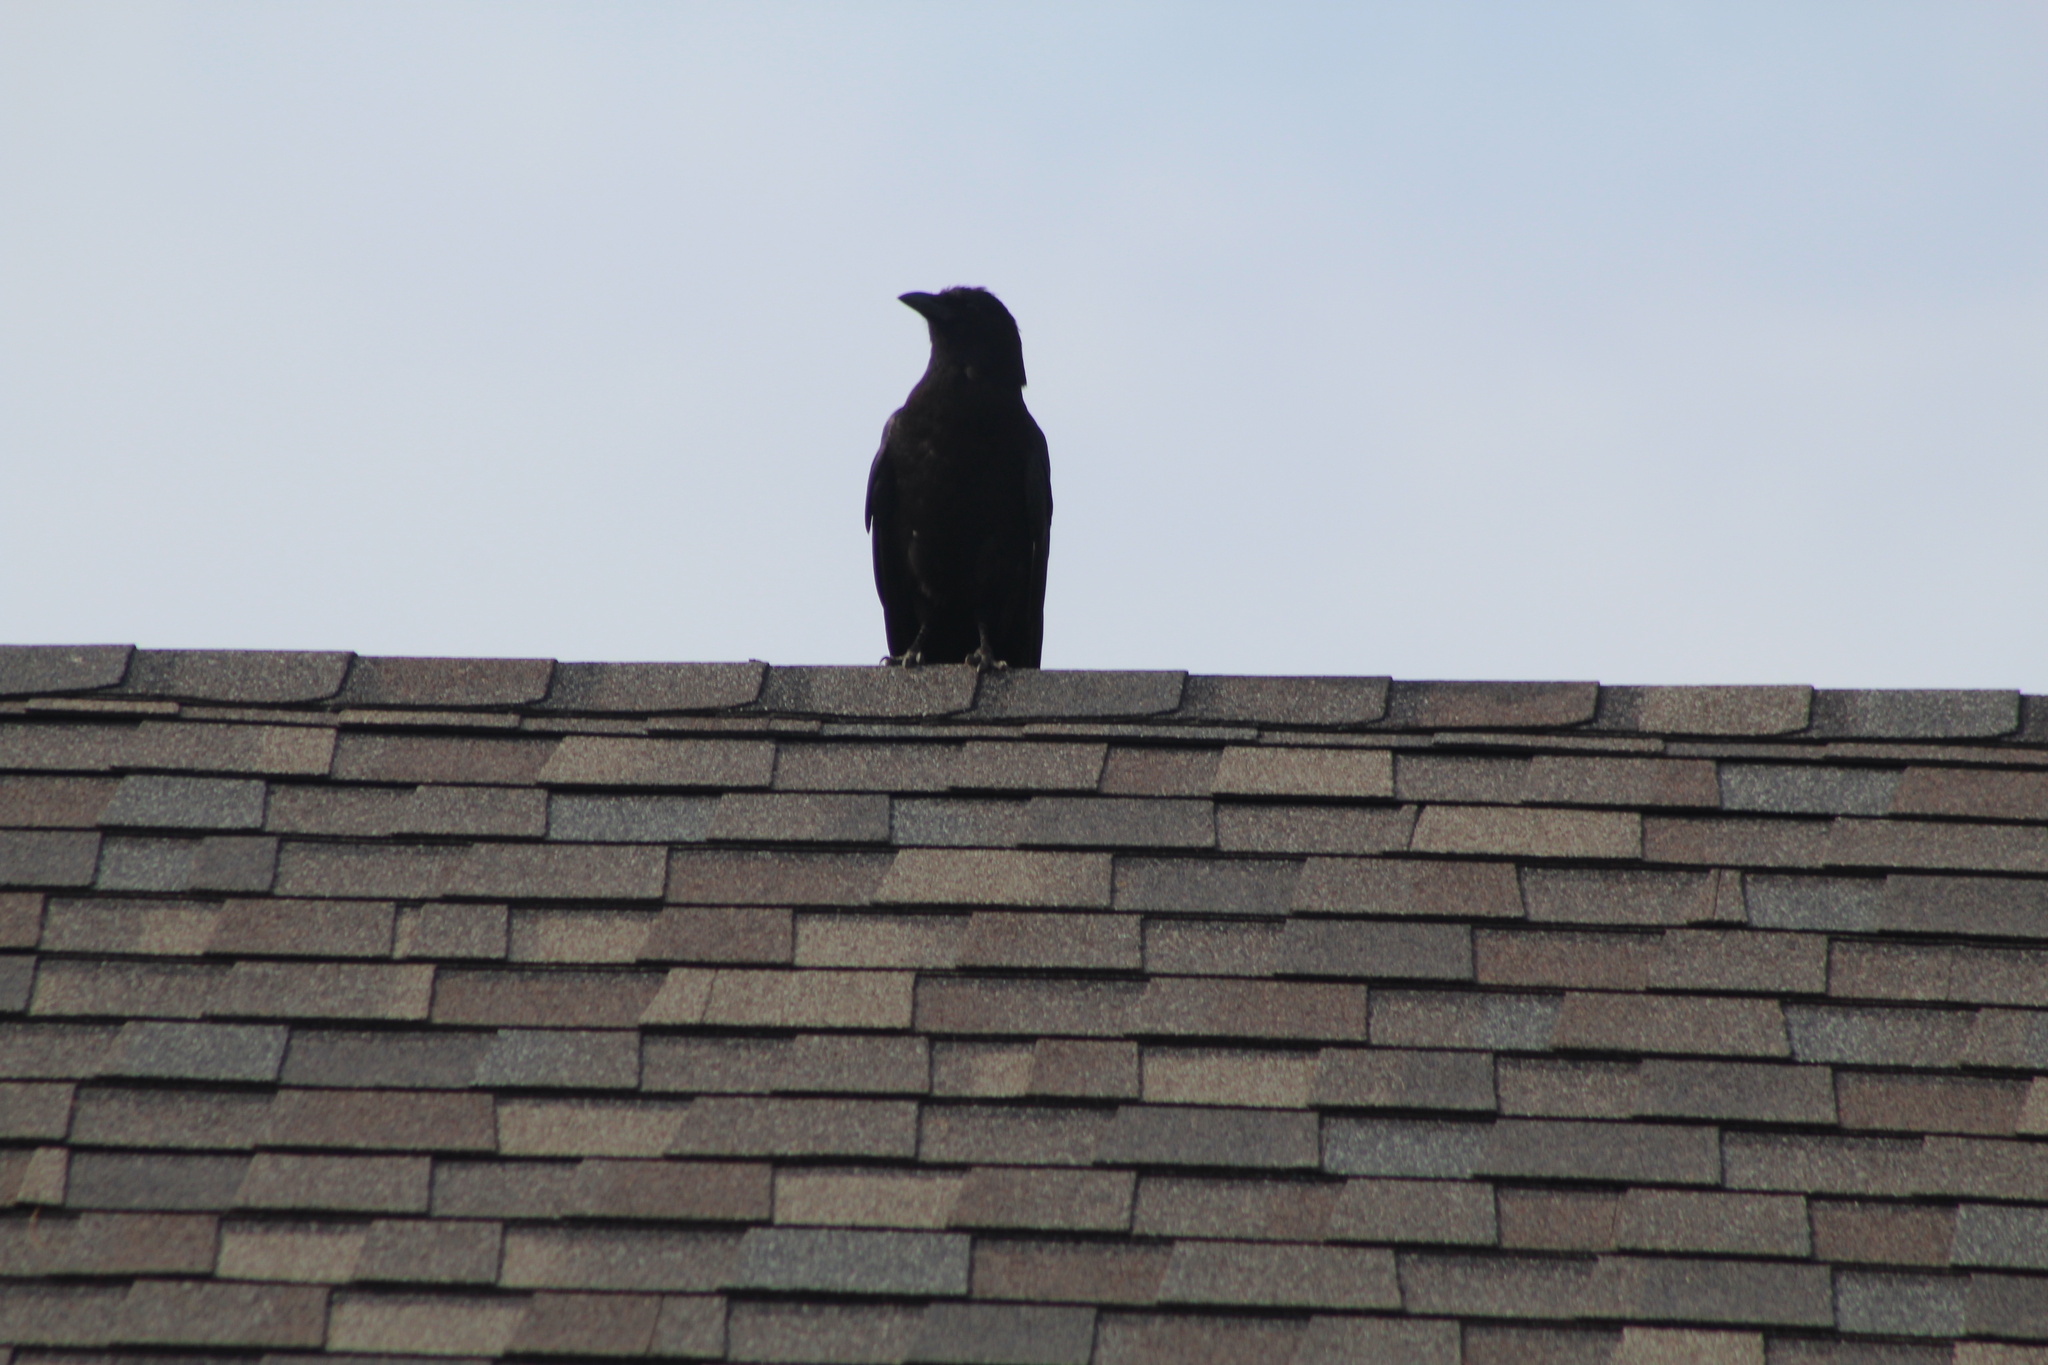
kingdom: Animalia
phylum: Chordata
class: Aves
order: Passeriformes
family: Corvidae
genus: Corvus
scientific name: Corvus brachyrhynchos
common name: American crow
